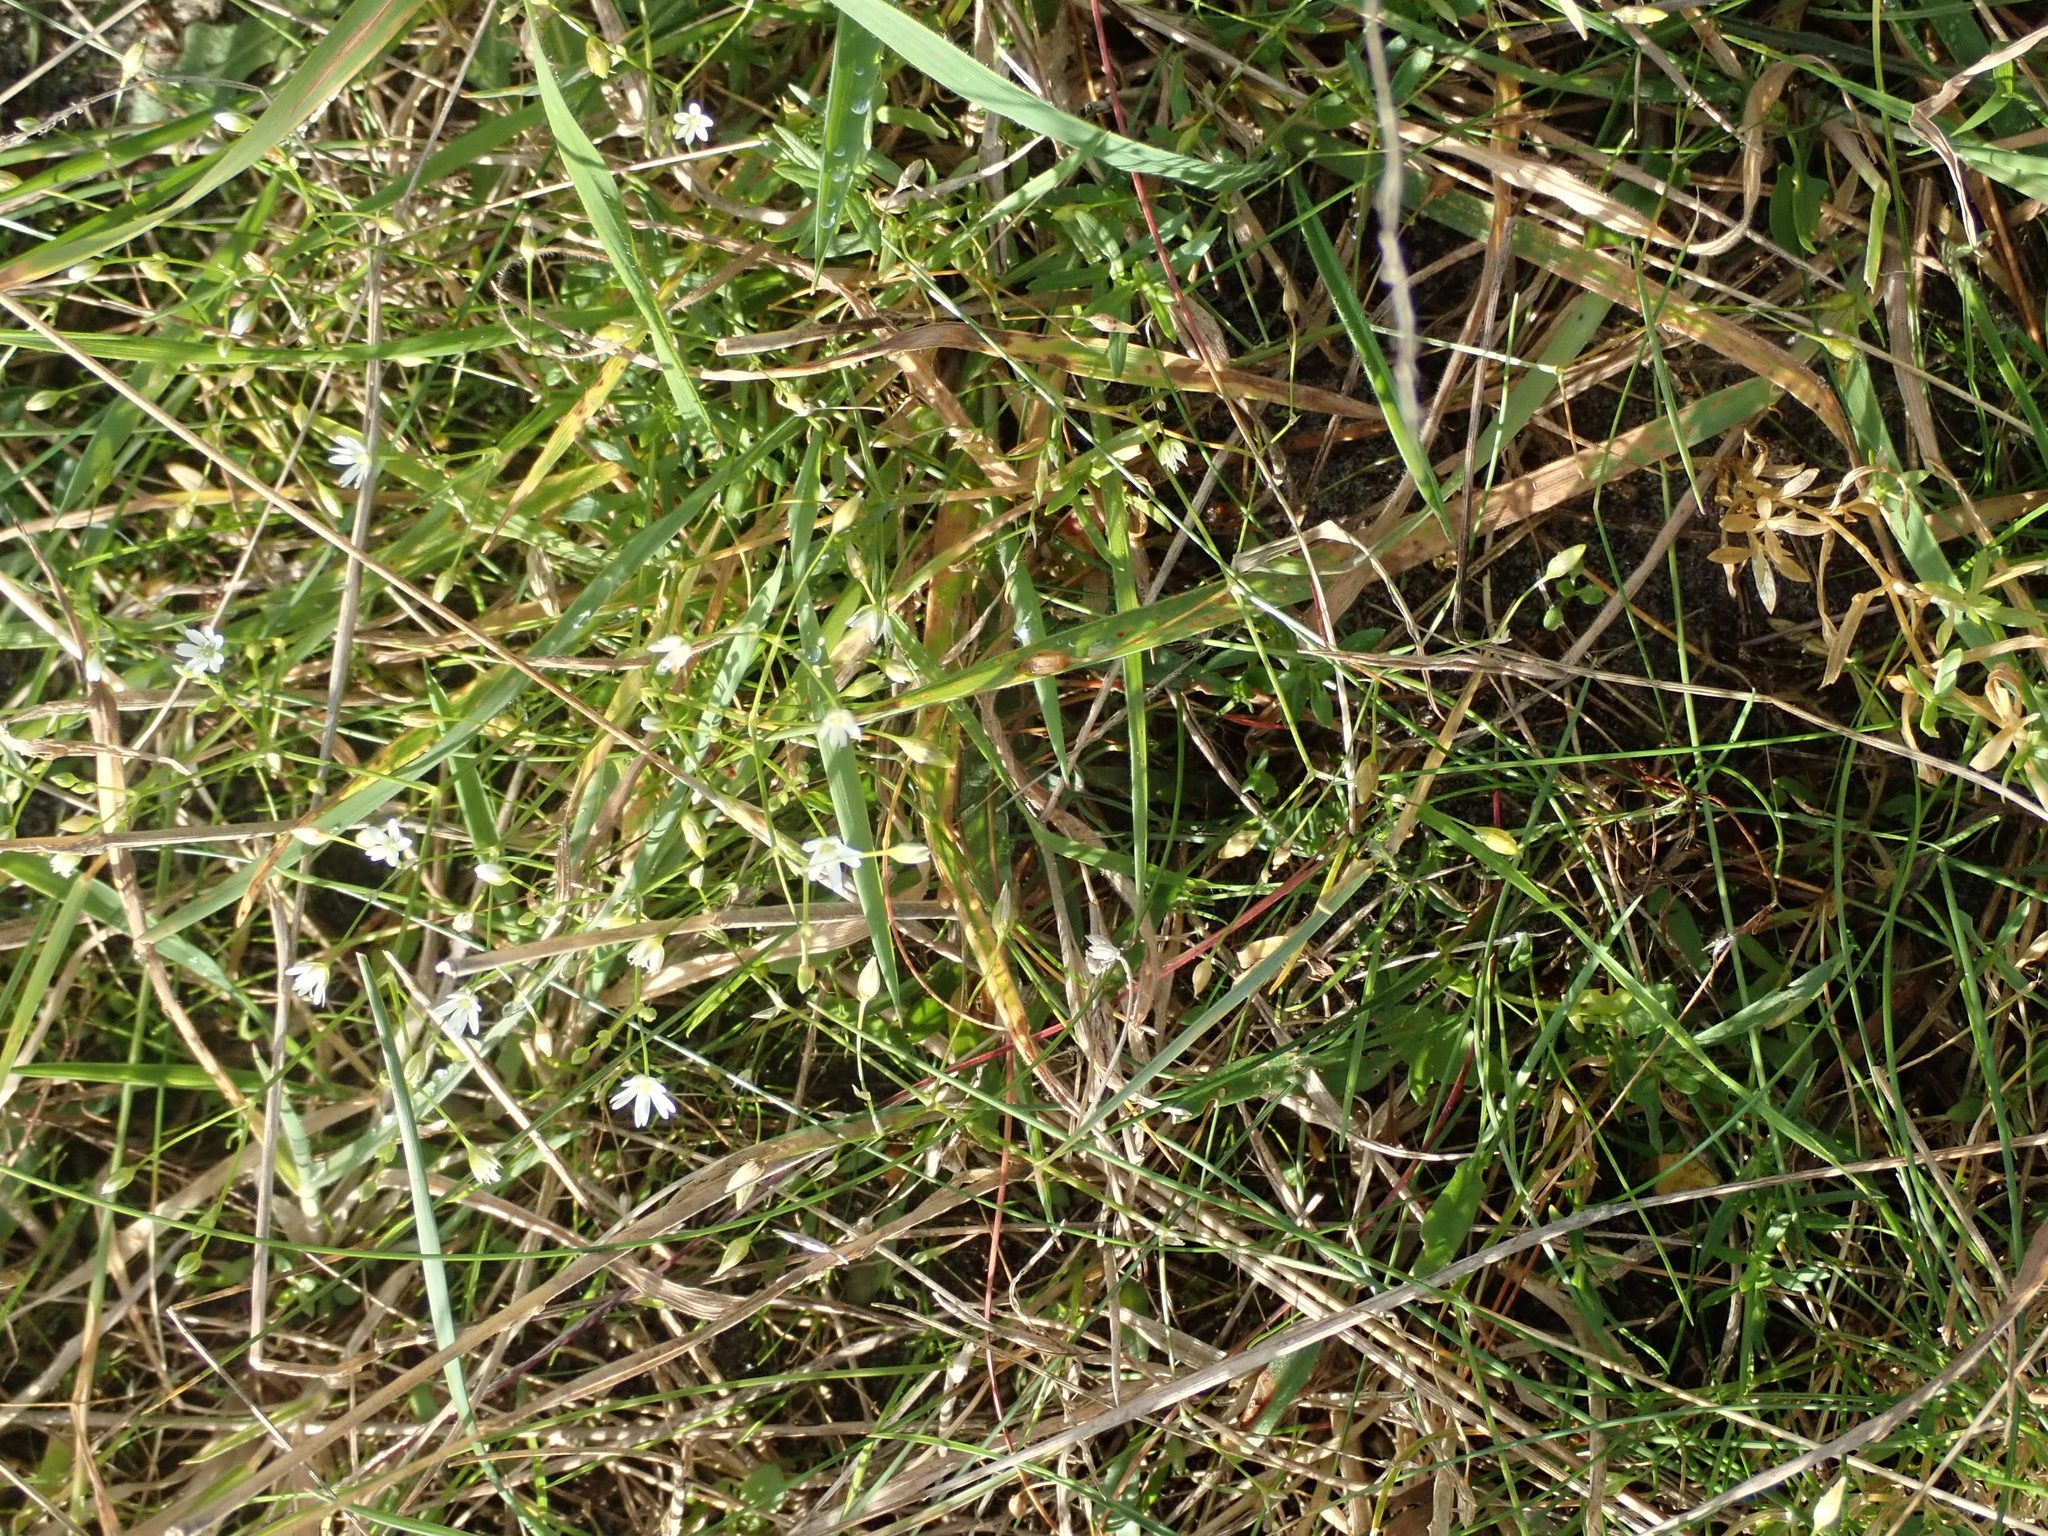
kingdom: Plantae
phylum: Tracheophyta
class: Magnoliopsida
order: Caryophyllales
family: Caryophyllaceae
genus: Stellaria
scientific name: Stellaria graminea
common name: Grass-like starwort
